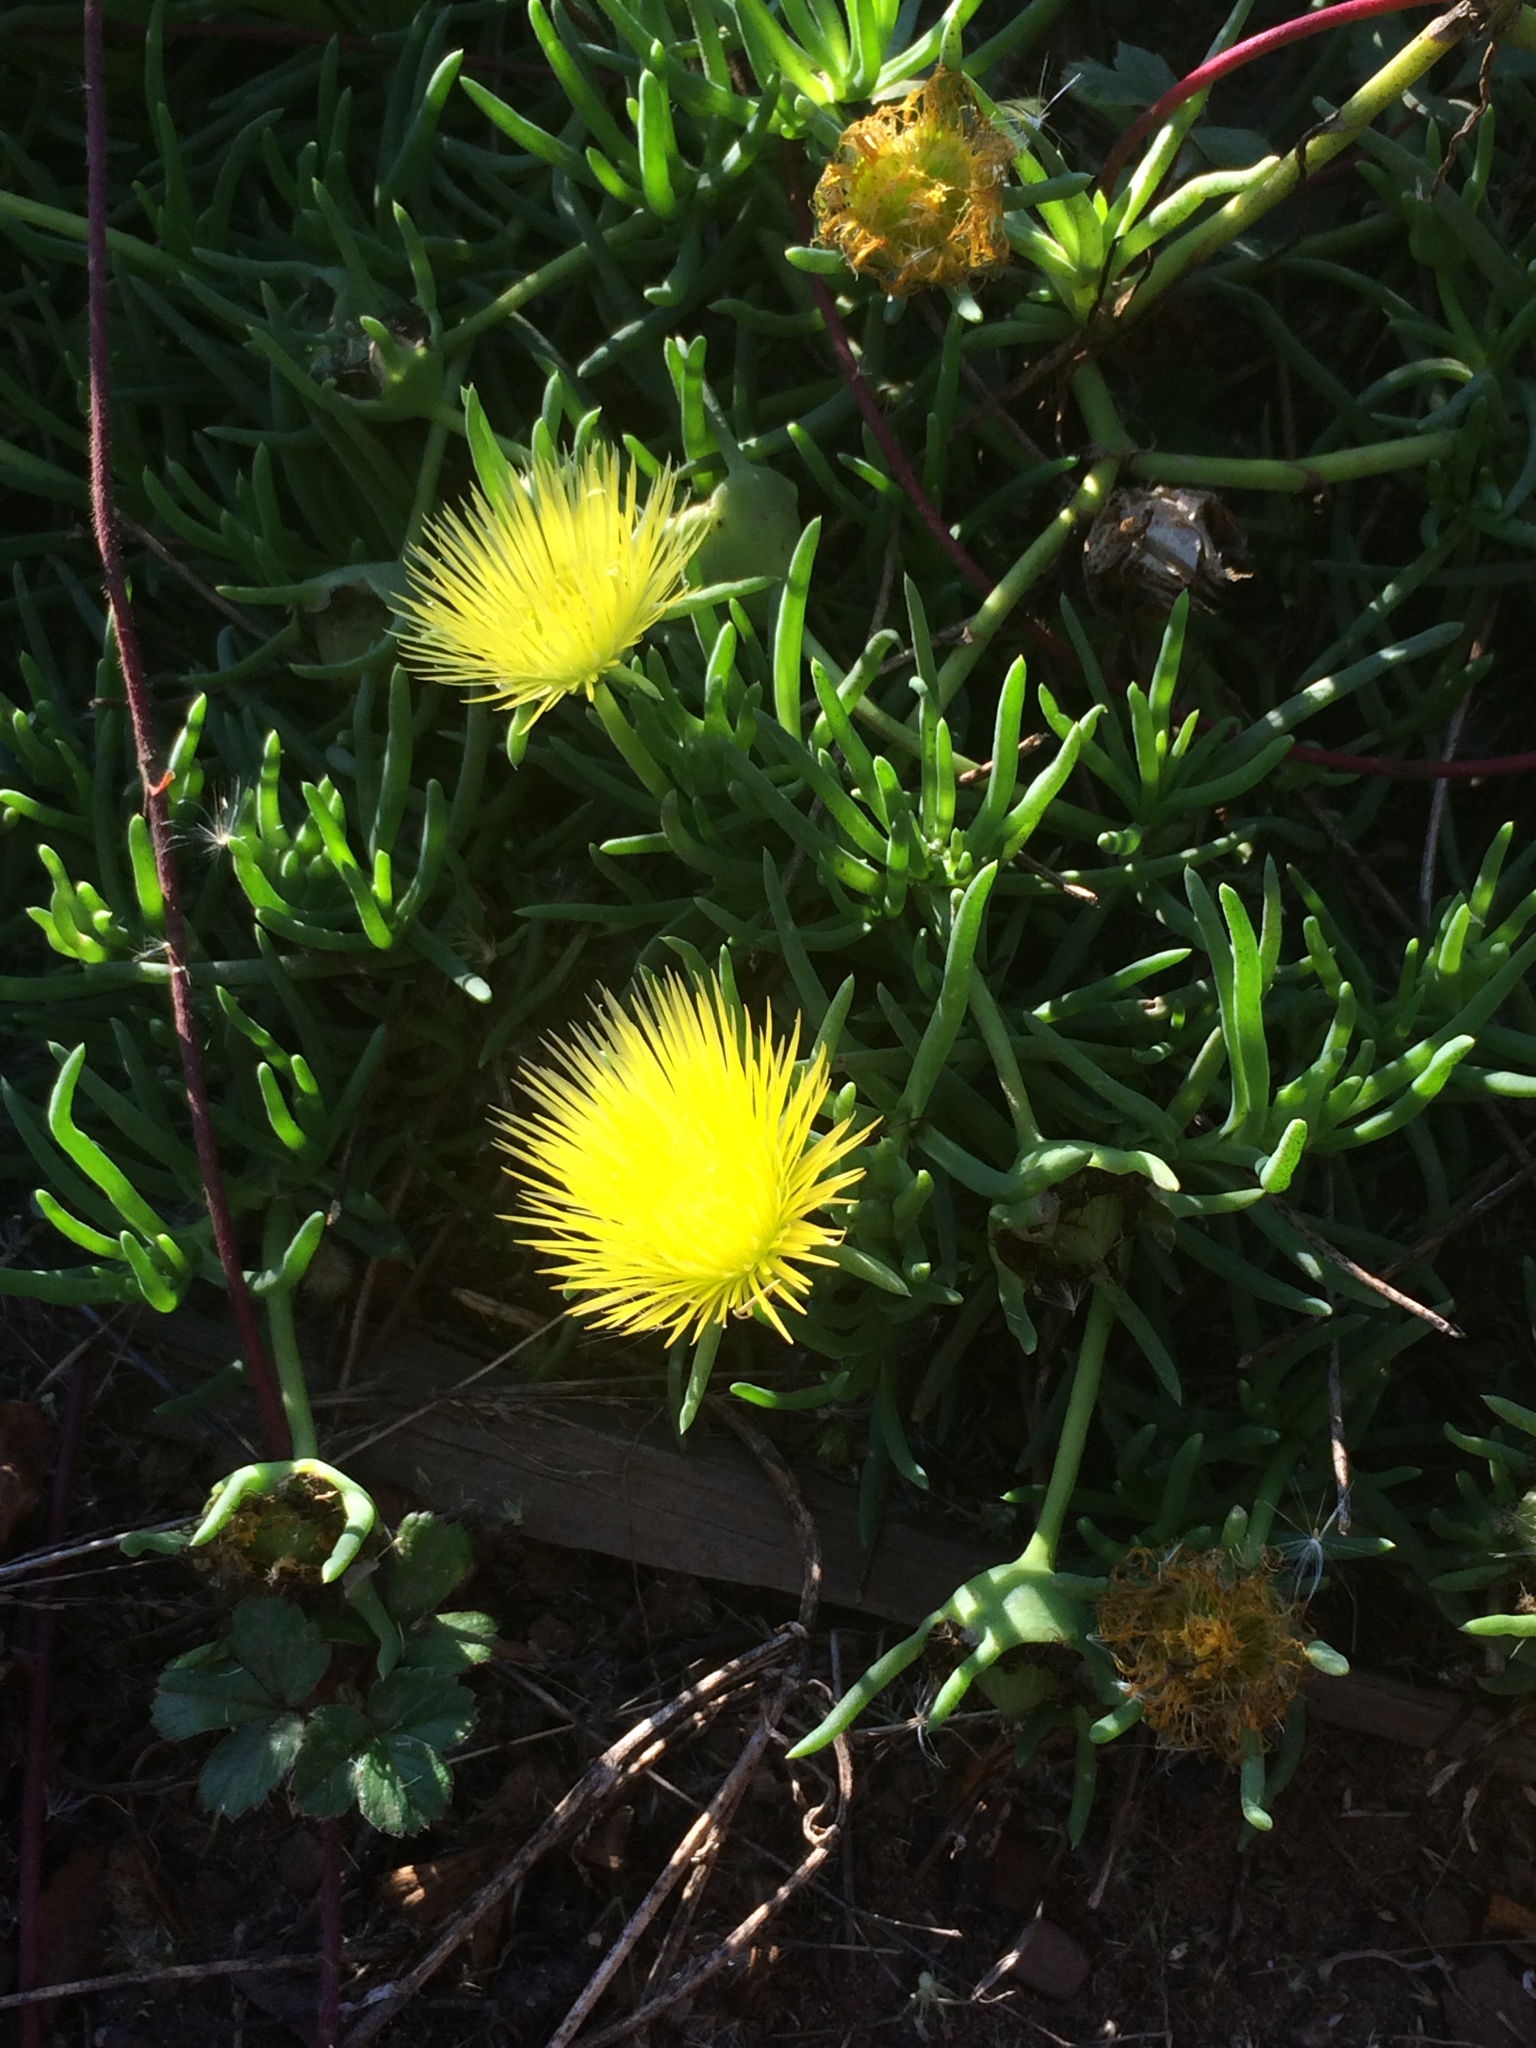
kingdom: Plantae
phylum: Tracheophyta
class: Magnoliopsida
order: Caryophyllales
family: Aizoaceae
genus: Conicosia
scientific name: Conicosia pugioniformis
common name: Narrow-leaved iceplant
